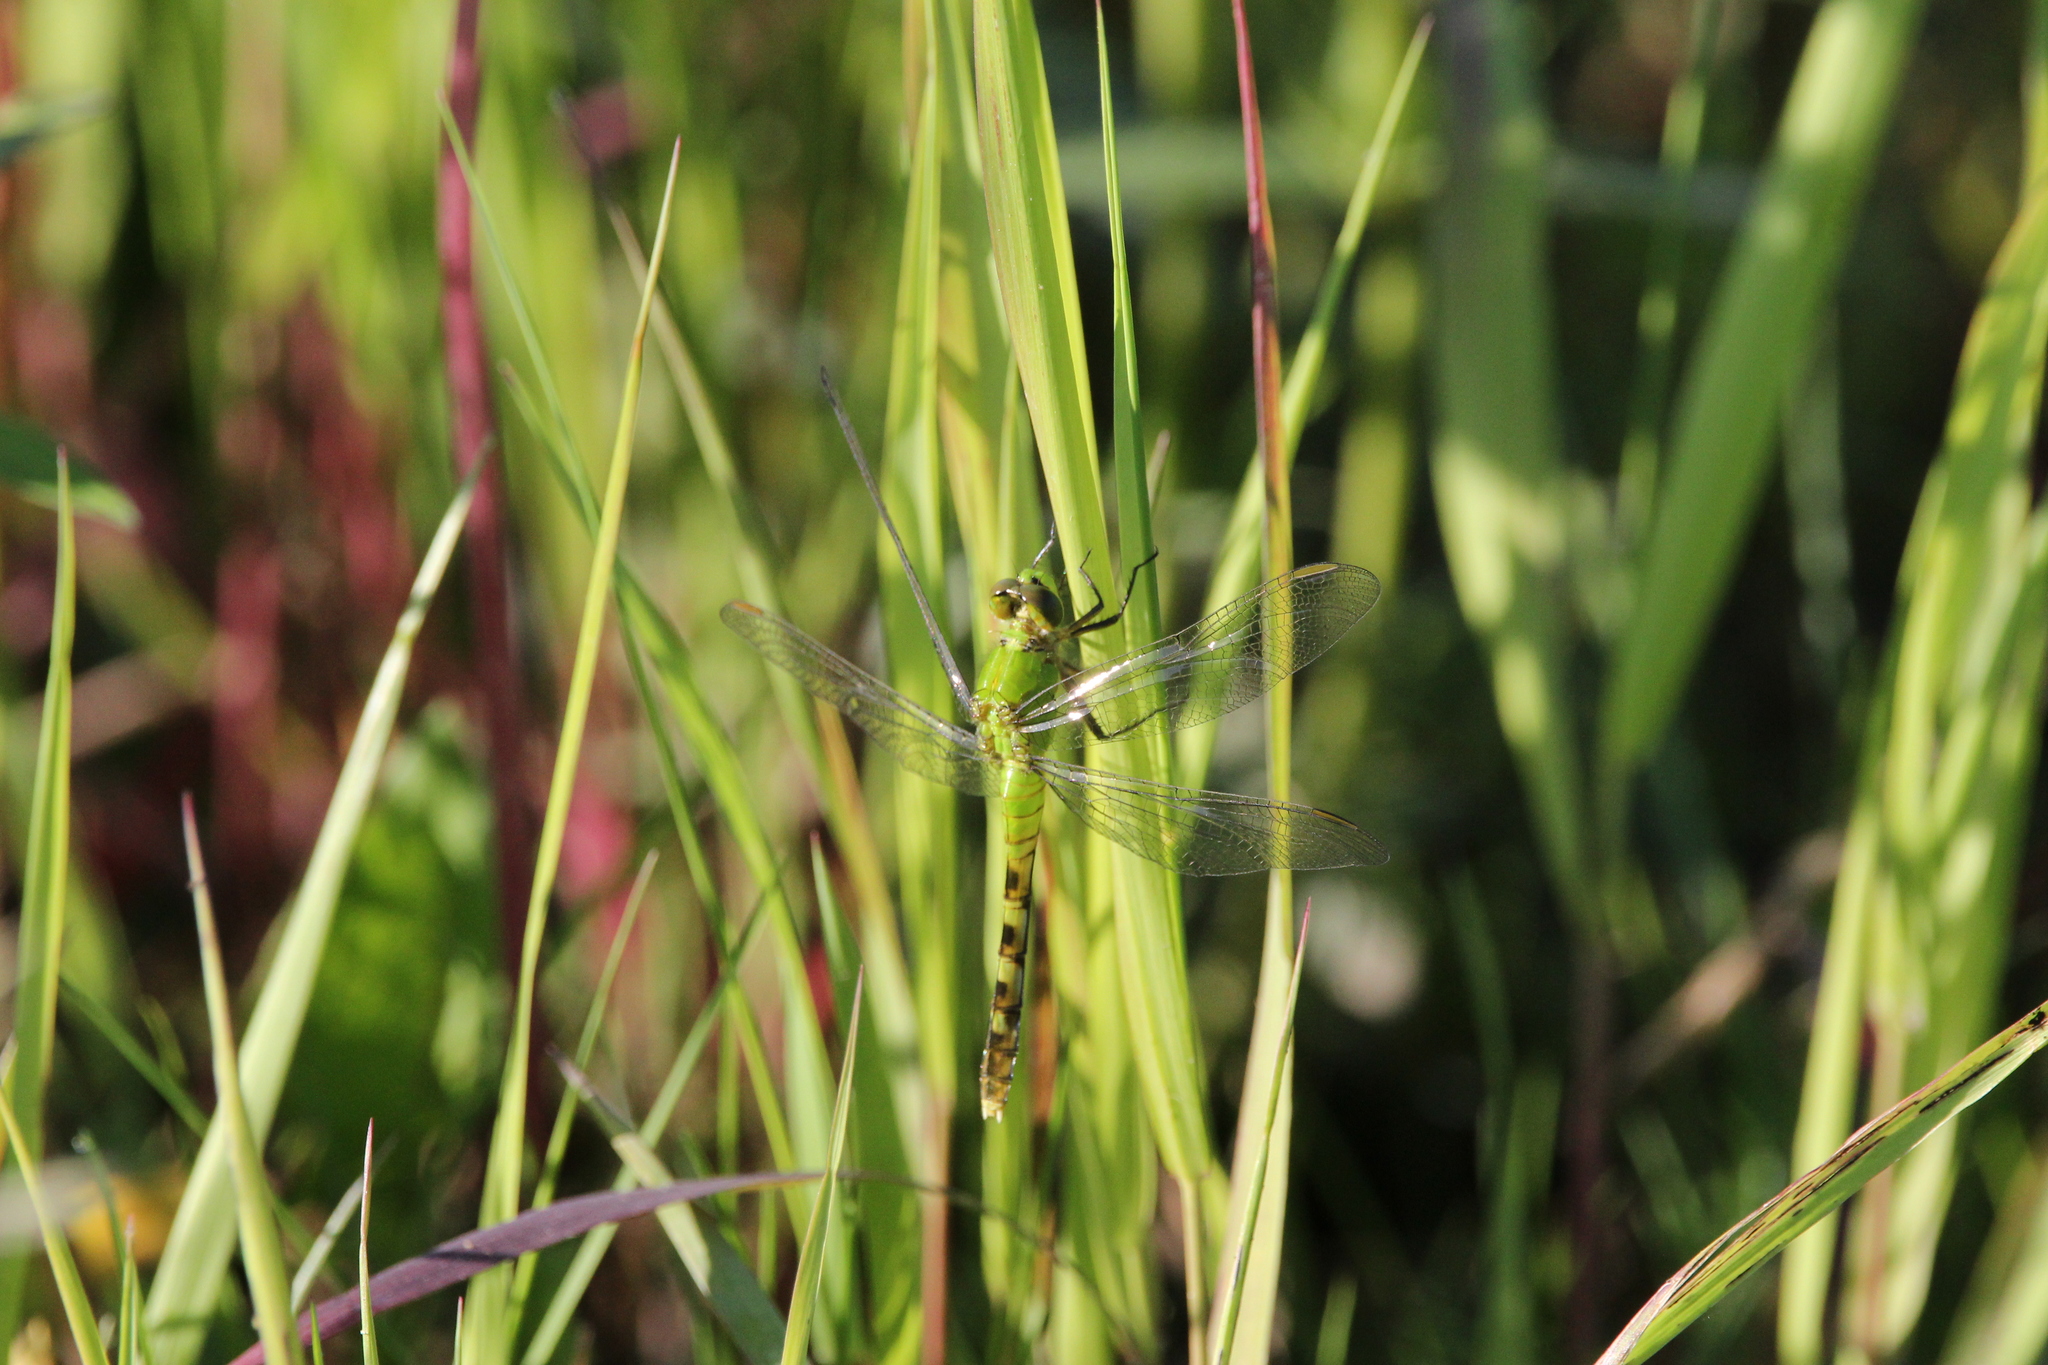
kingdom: Animalia
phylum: Arthropoda
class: Insecta
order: Odonata
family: Libellulidae
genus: Erythemis
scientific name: Erythemis simplicicollis
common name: Eastern pondhawk
